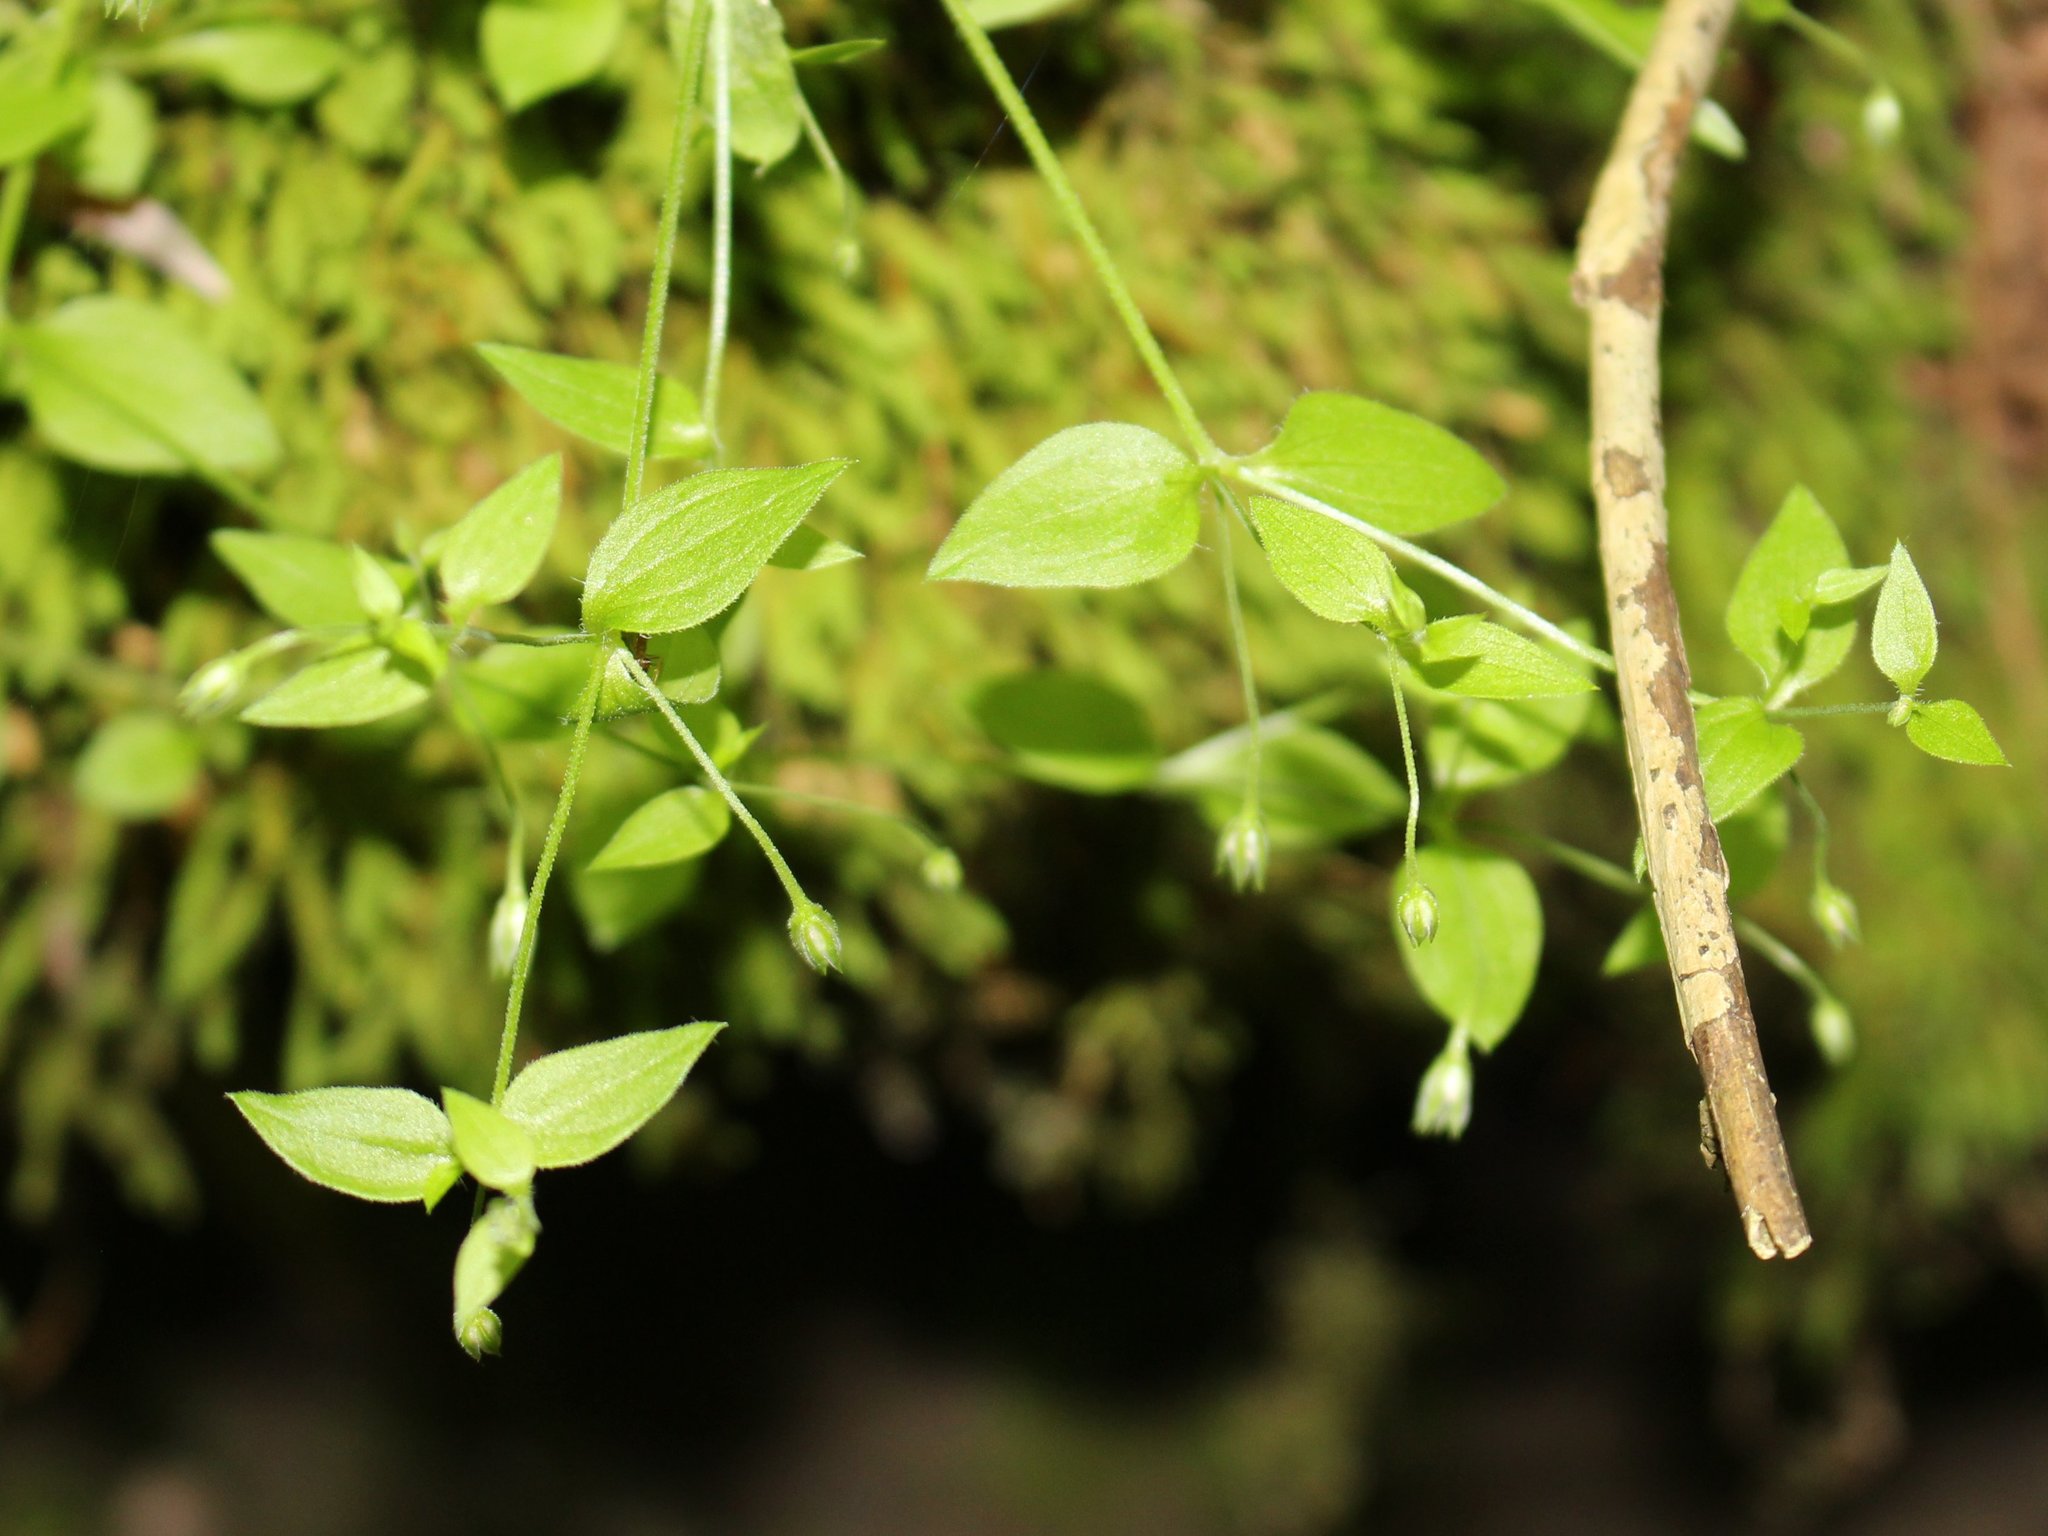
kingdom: Plantae
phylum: Tracheophyta
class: Magnoliopsida
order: Caryophyllales
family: Caryophyllaceae
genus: Moehringia
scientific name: Moehringia trinervia
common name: Three-nerved sandwort
